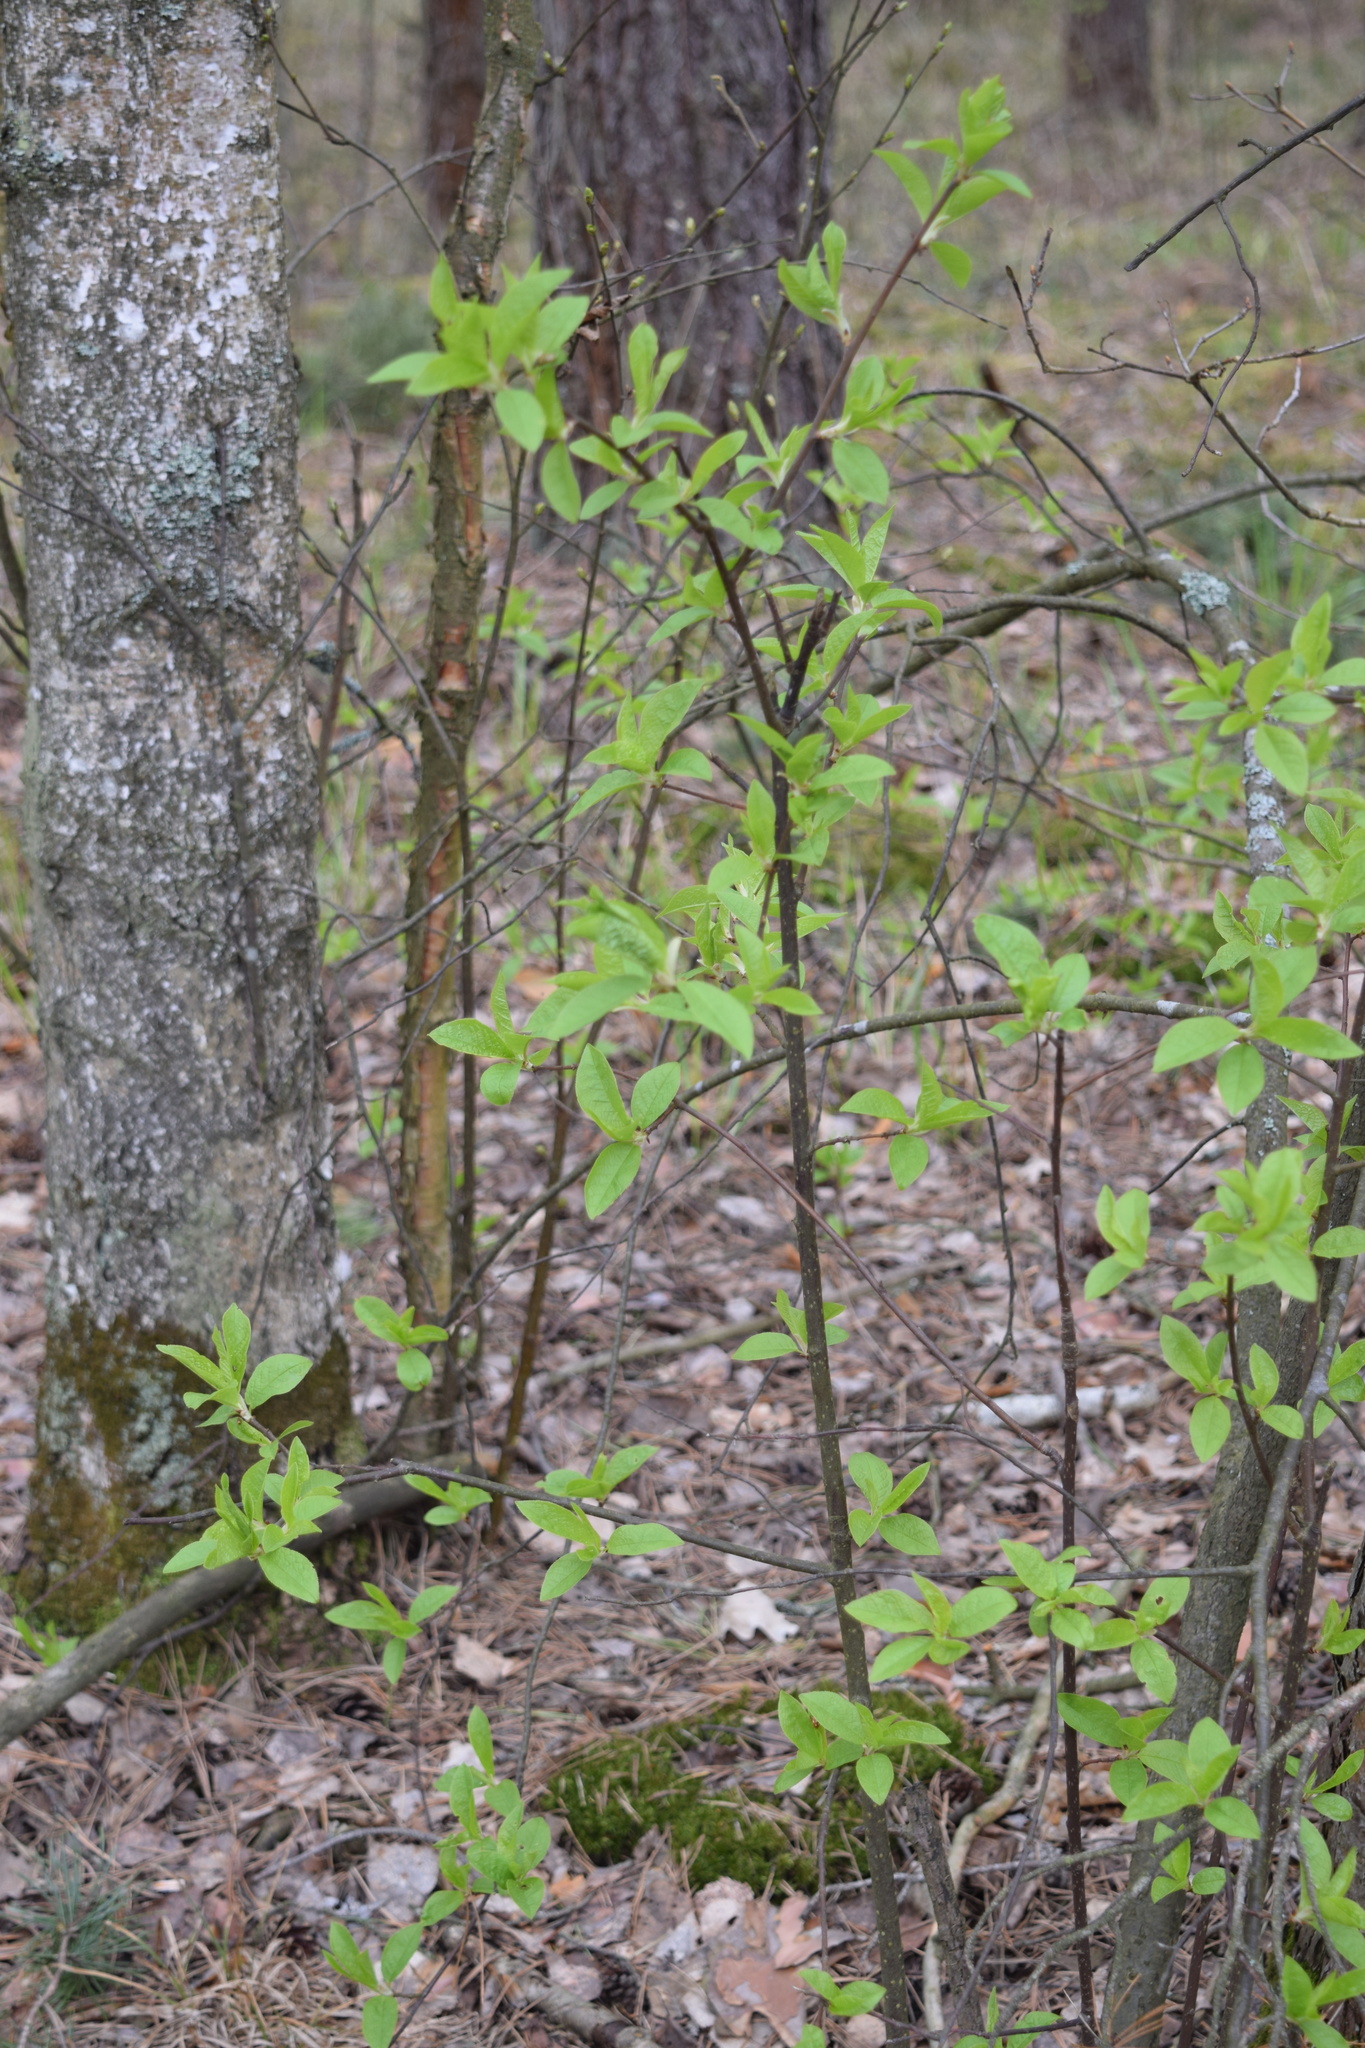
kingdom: Plantae
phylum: Tracheophyta
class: Magnoliopsida
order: Rosales
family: Rosaceae
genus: Prunus
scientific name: Prunus padus
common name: Bird cherry
